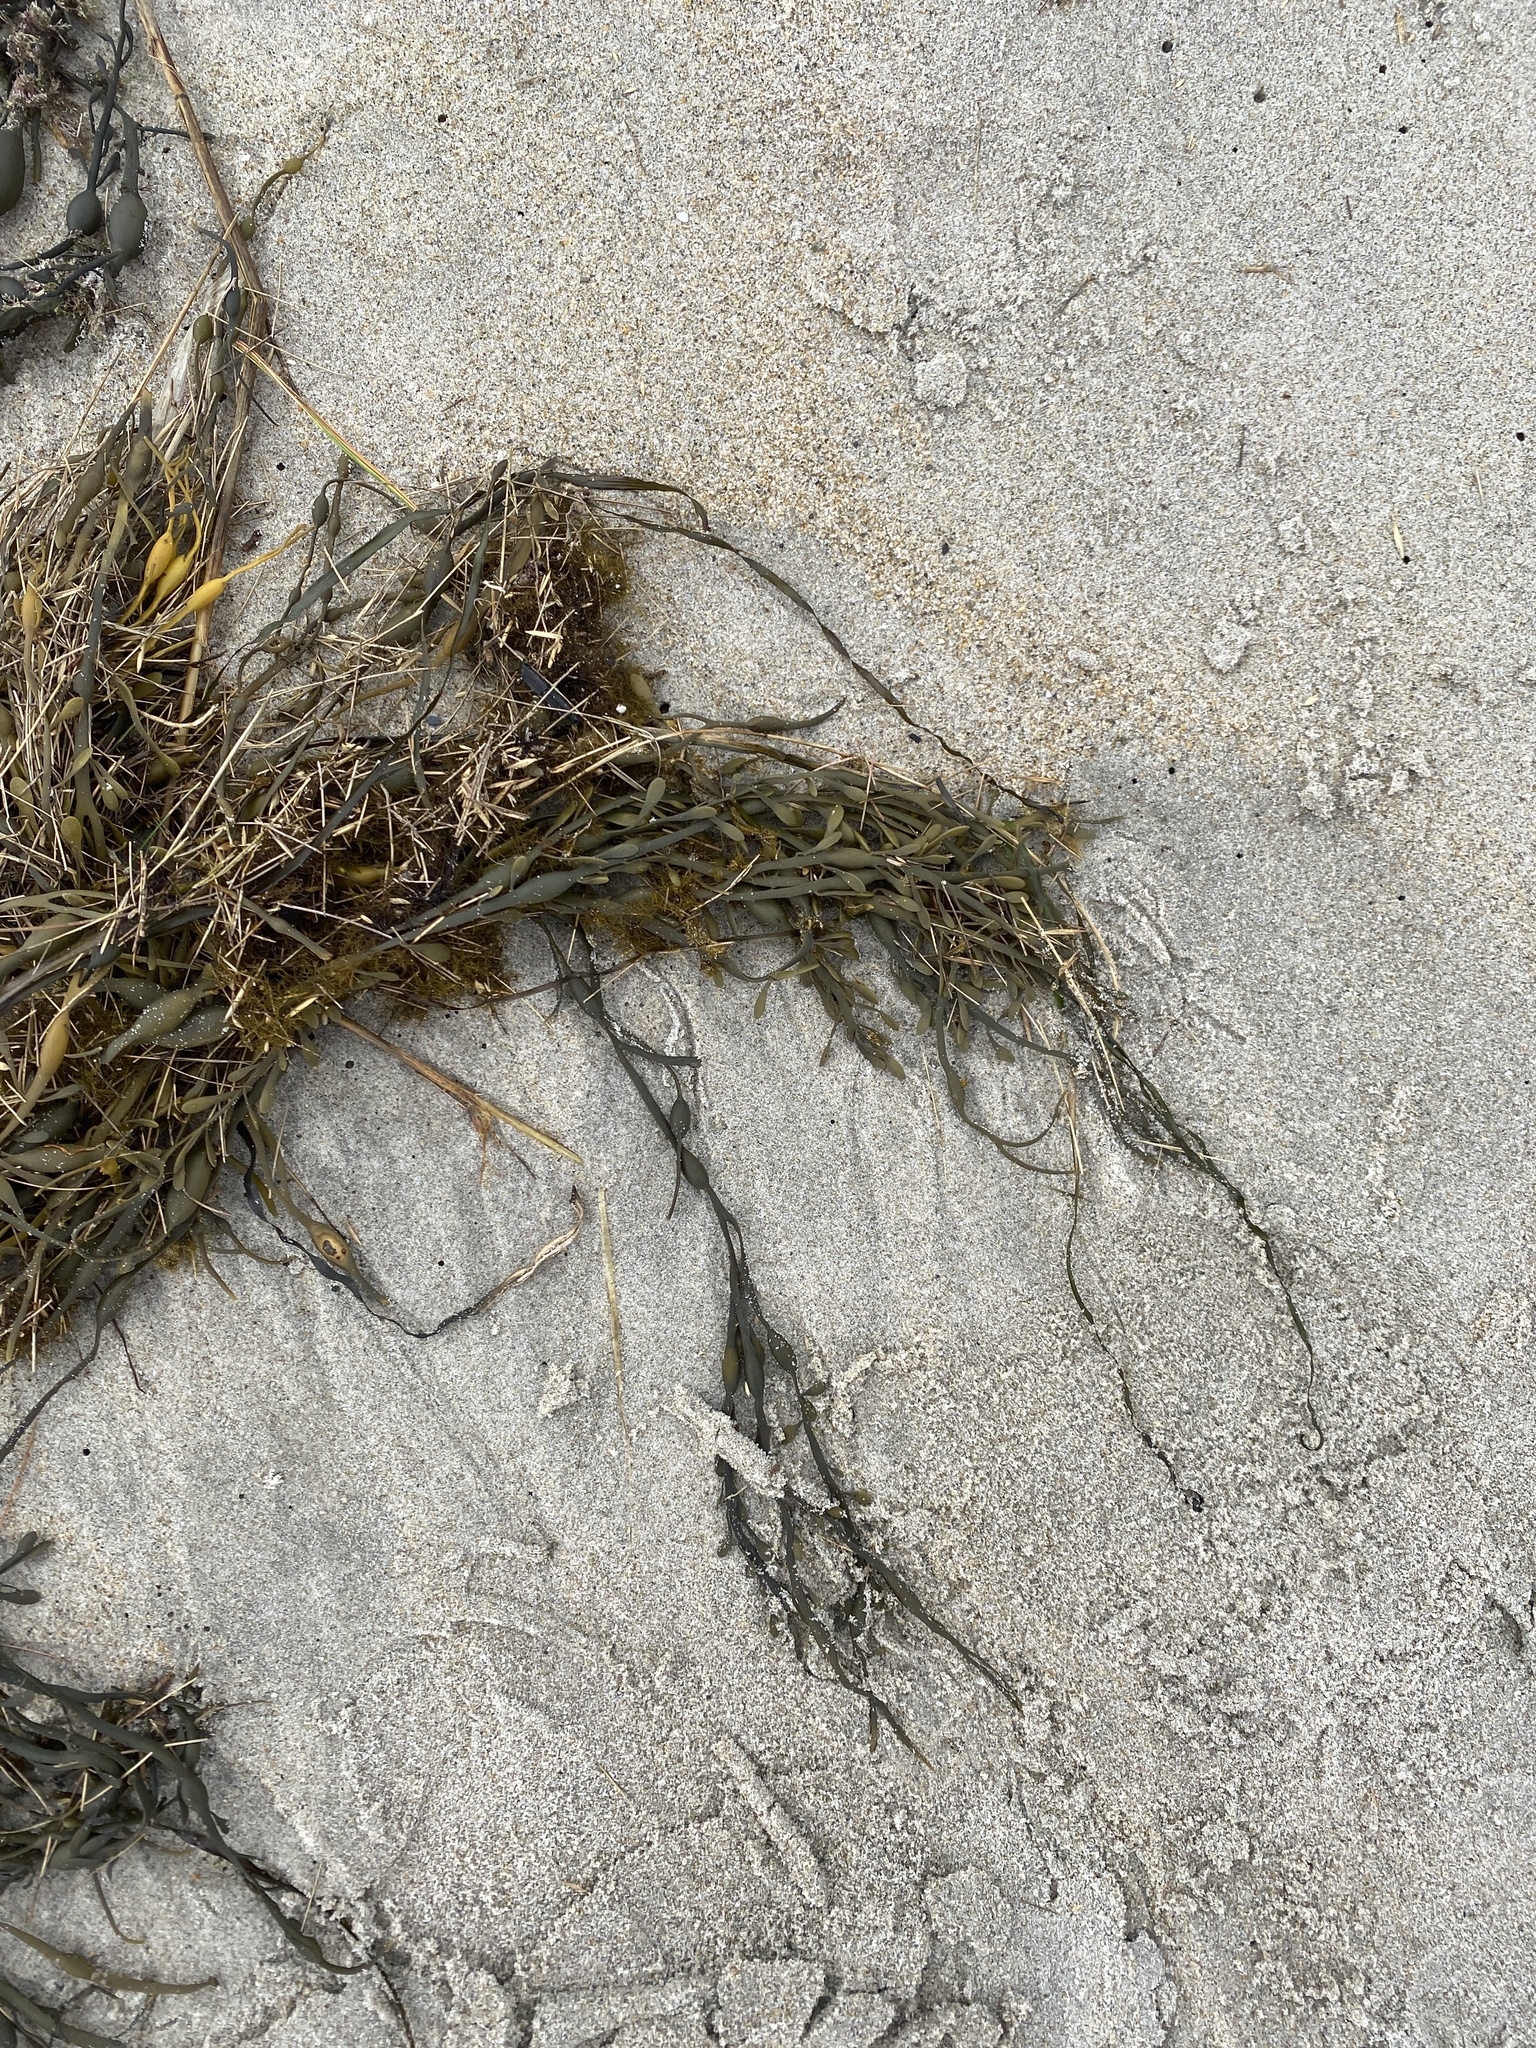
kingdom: Chromista
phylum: Ochrophyta
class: Phaeophyceae
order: Fucales
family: Fucaceae
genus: Ascophyllum
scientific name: Ascophyllum nodosum
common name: Knotted wrack
